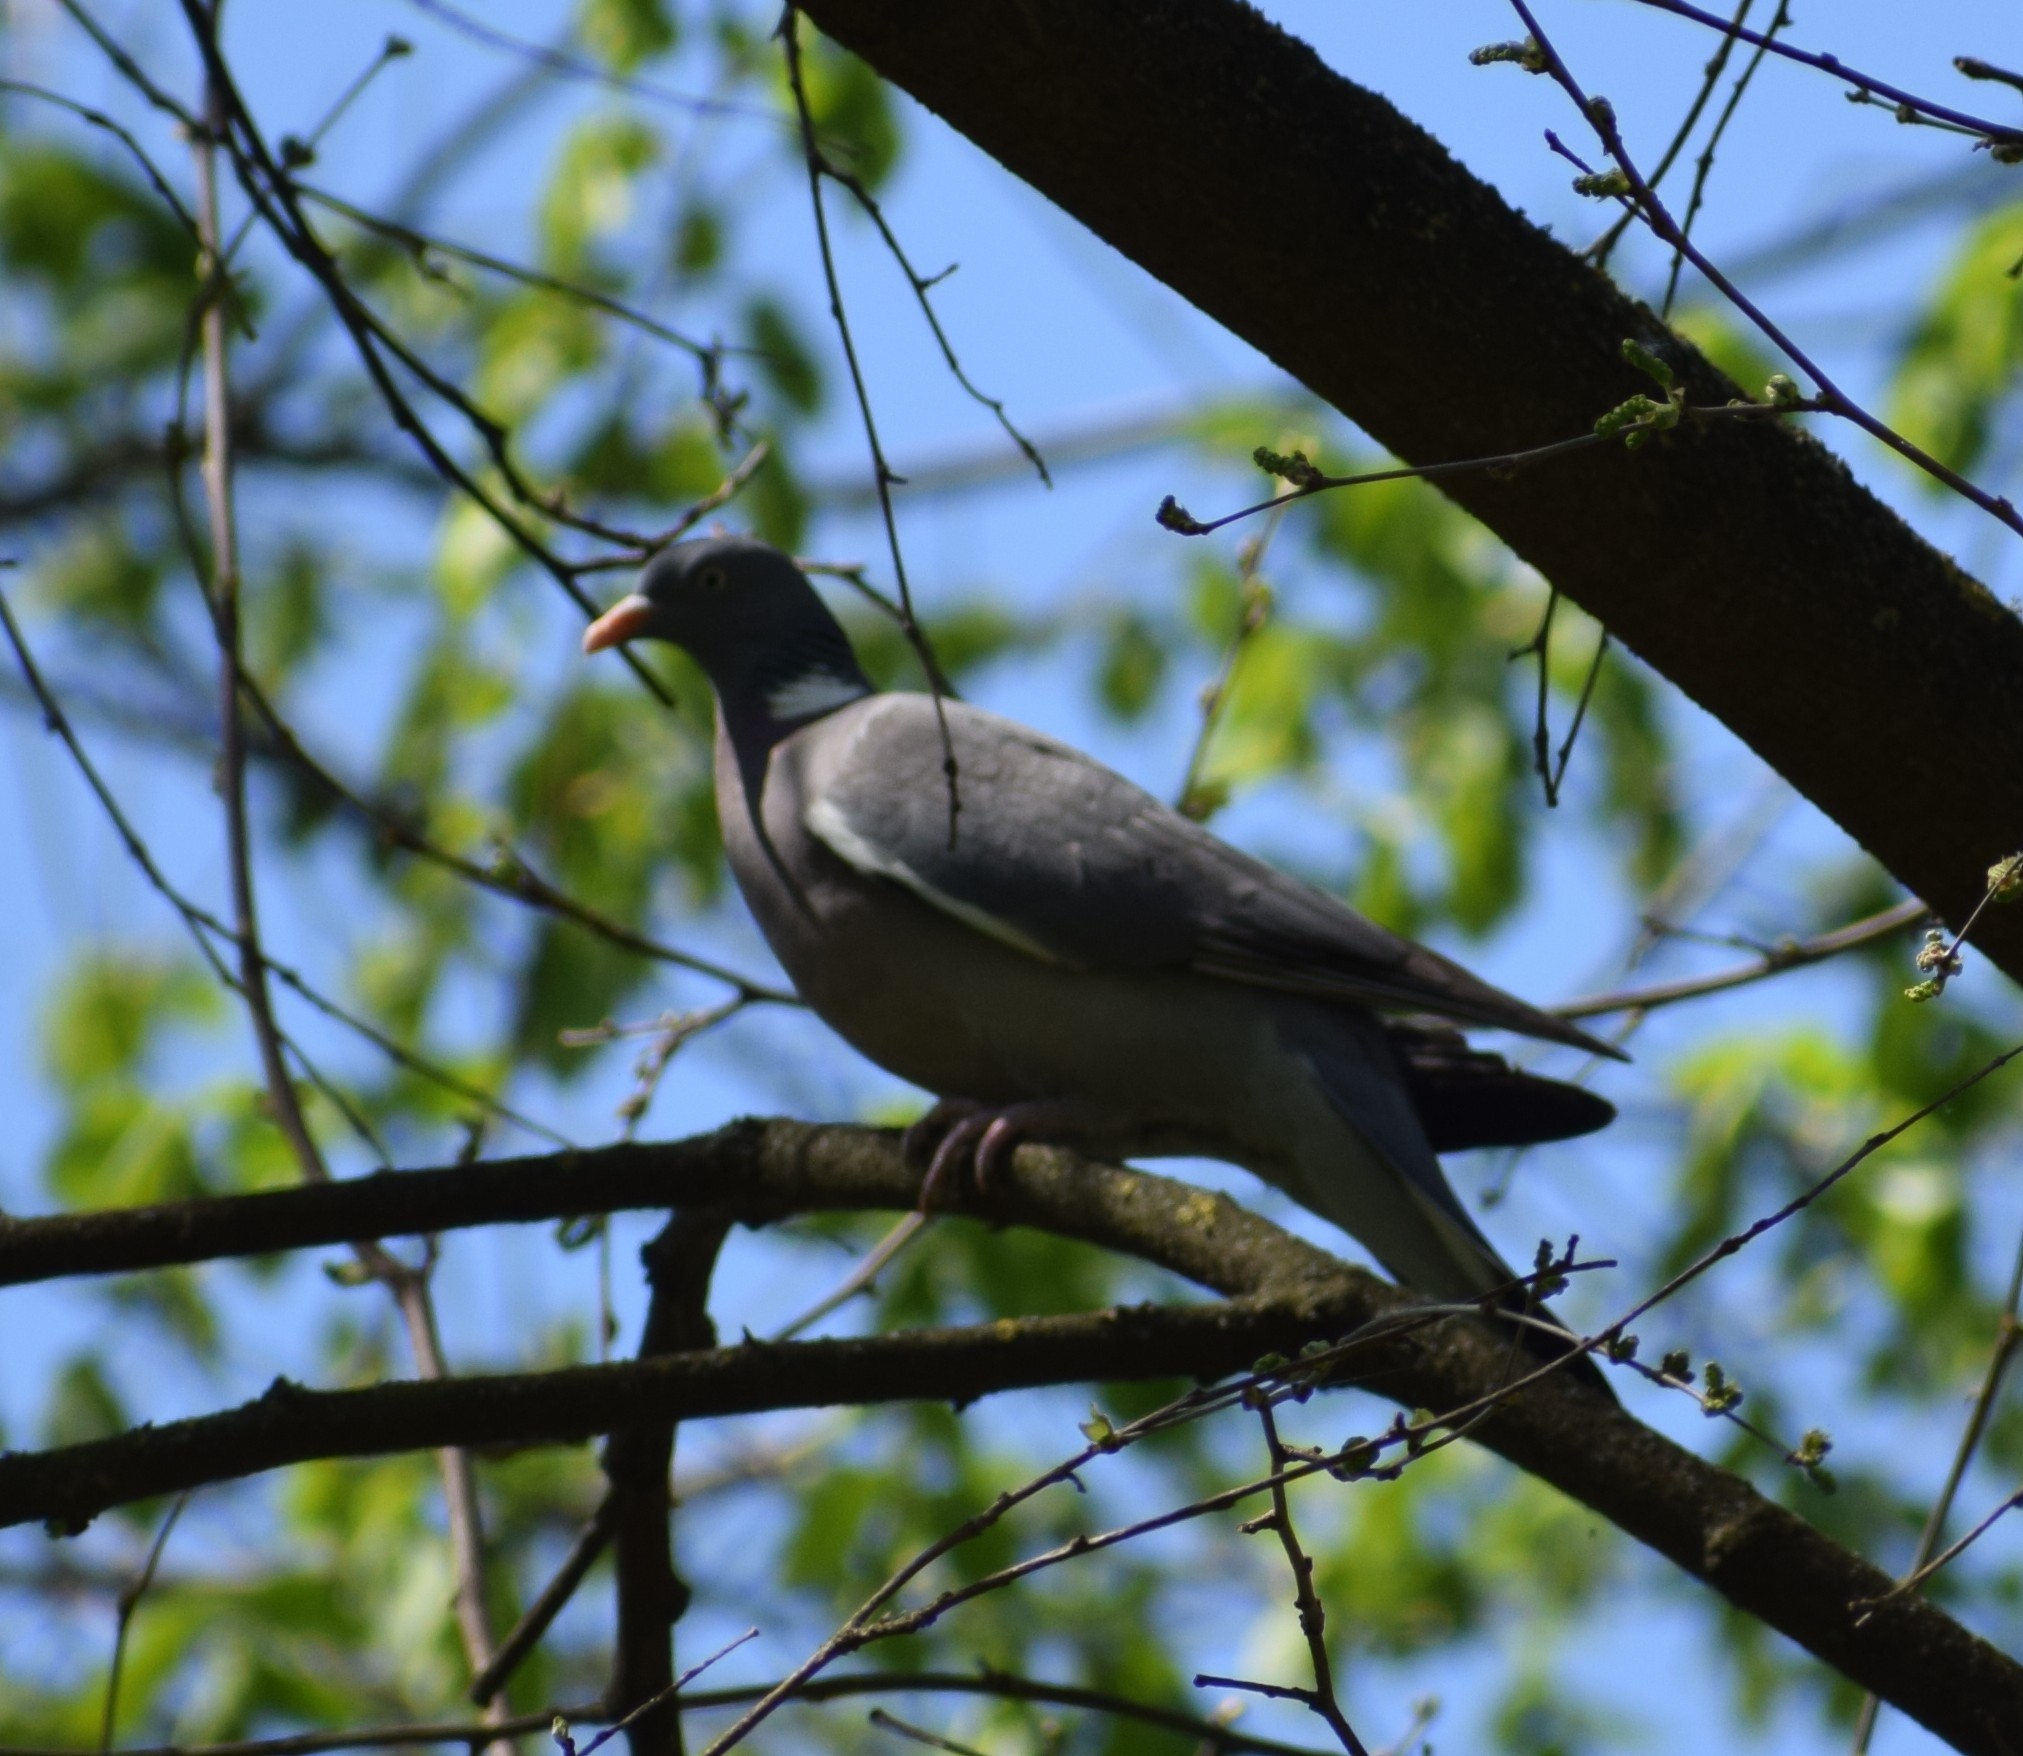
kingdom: Animalia
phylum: Chordata
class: Aves
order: Columbiformes
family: Columbidae
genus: Columba
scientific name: Columba palumbus
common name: Common wood pigeon
